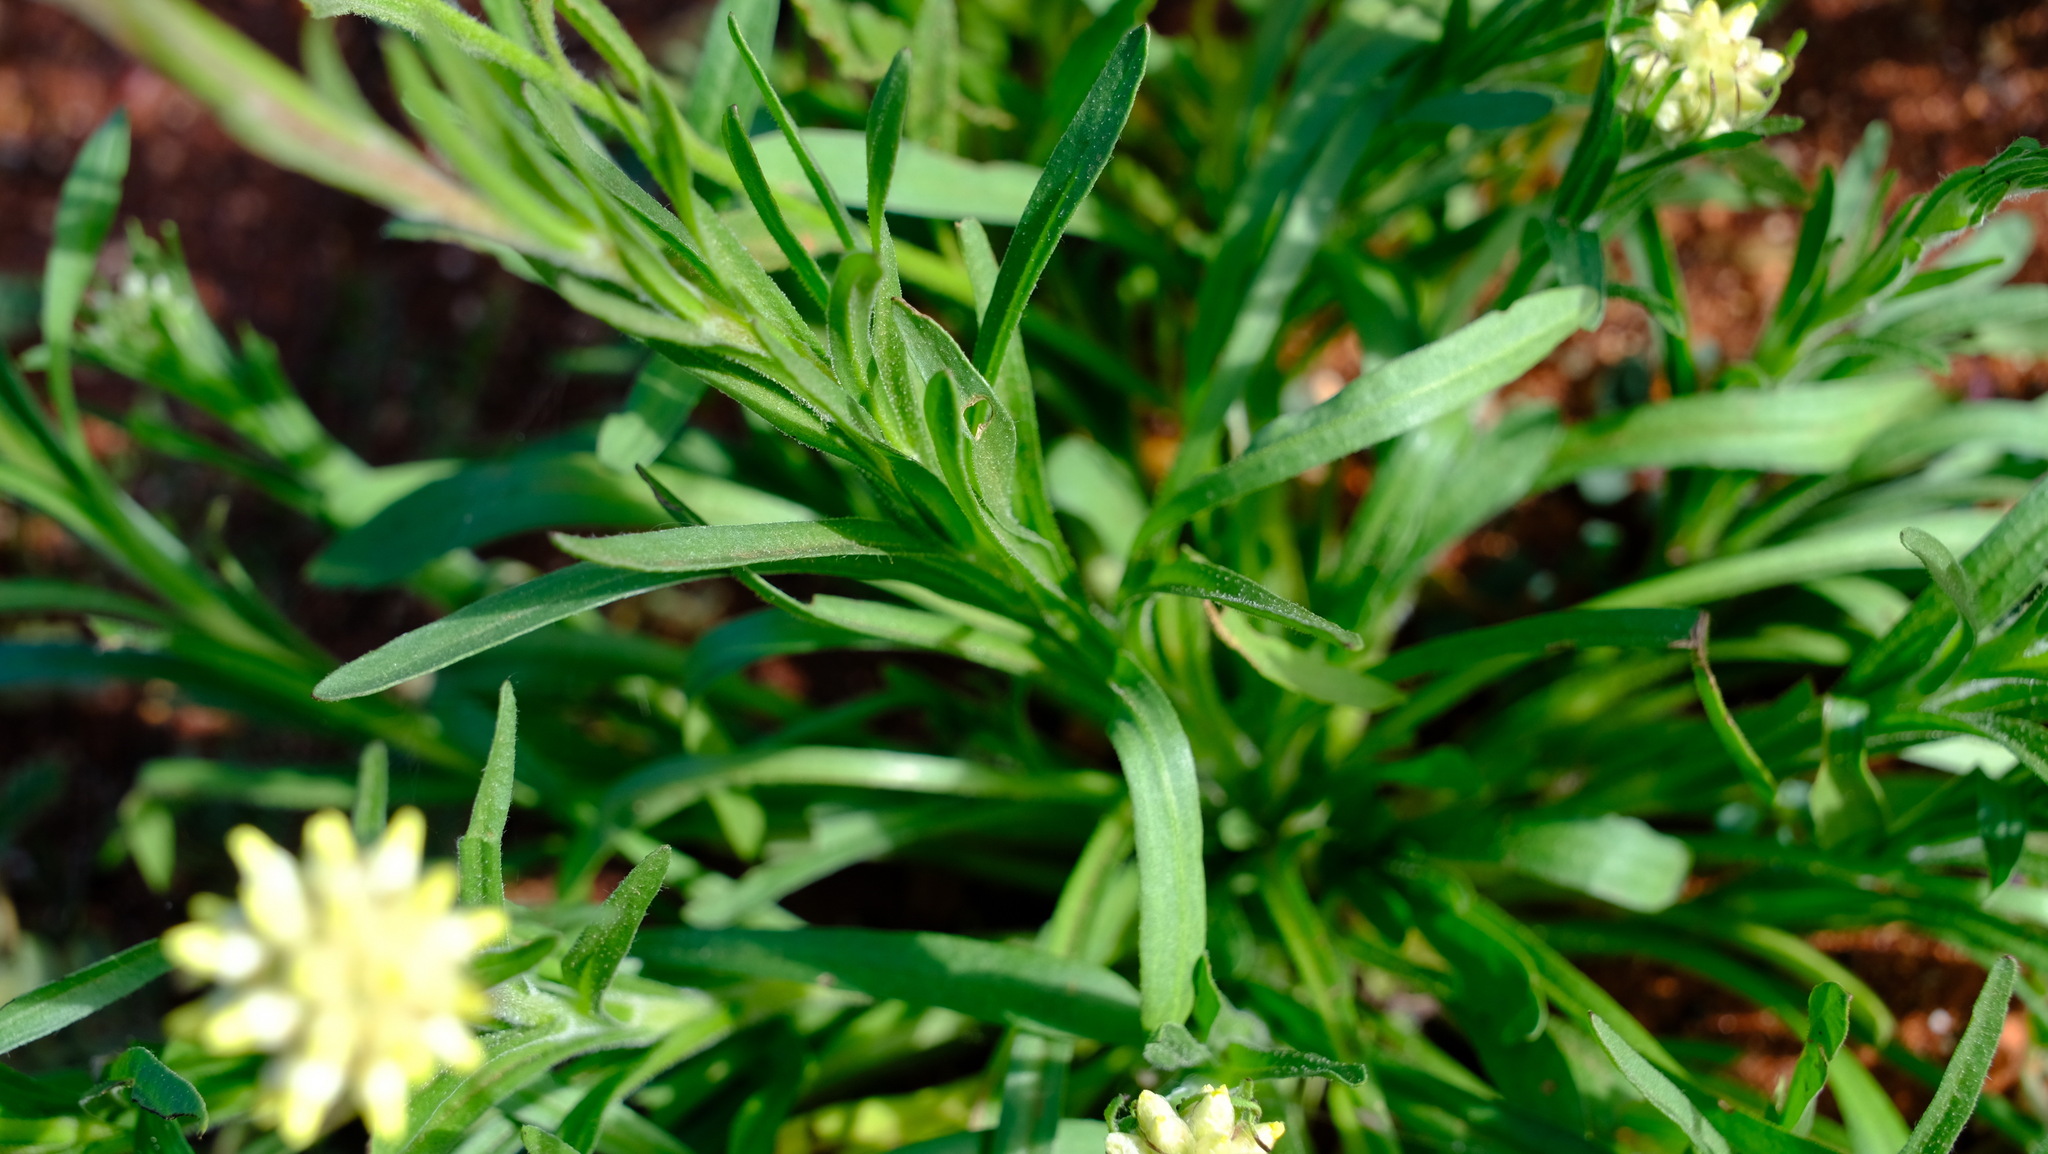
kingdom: Plantae
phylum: Tracheophyta
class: Magnoliopsida
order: Asterales
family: Asteraceae
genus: Cephalipterum
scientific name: Cephalipterum drummondii
